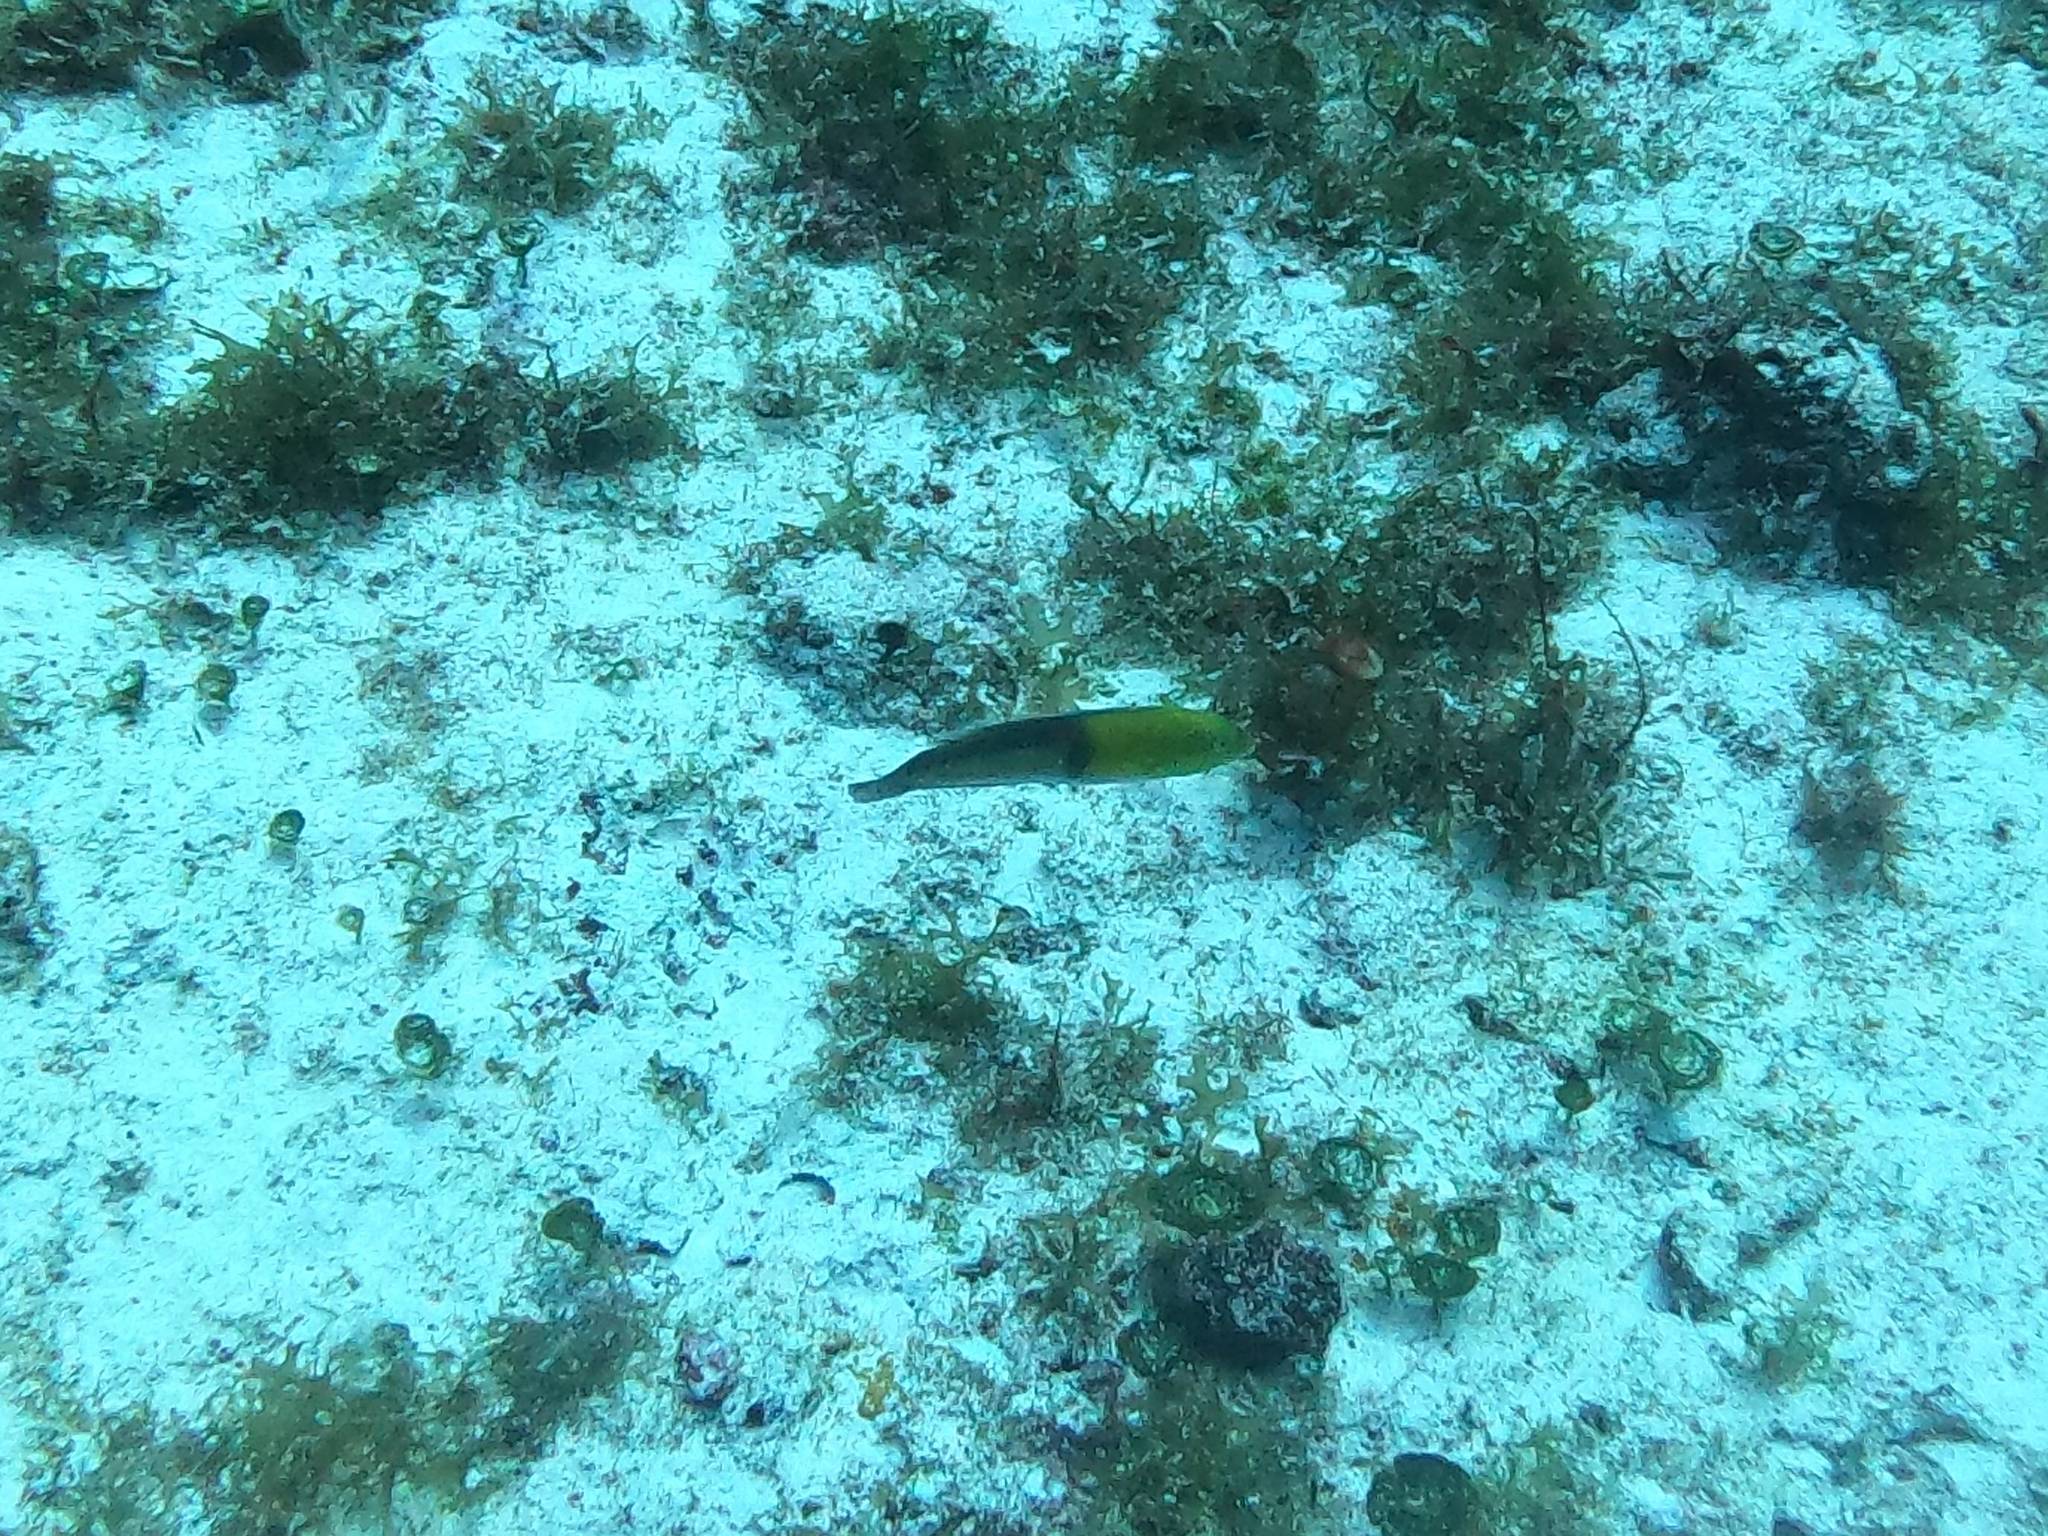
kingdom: Animalia
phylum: Chordata
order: Perciformes
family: Labridae
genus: Halichoeres
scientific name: Halichoeres garnoti
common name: Yellowhead wrasse
